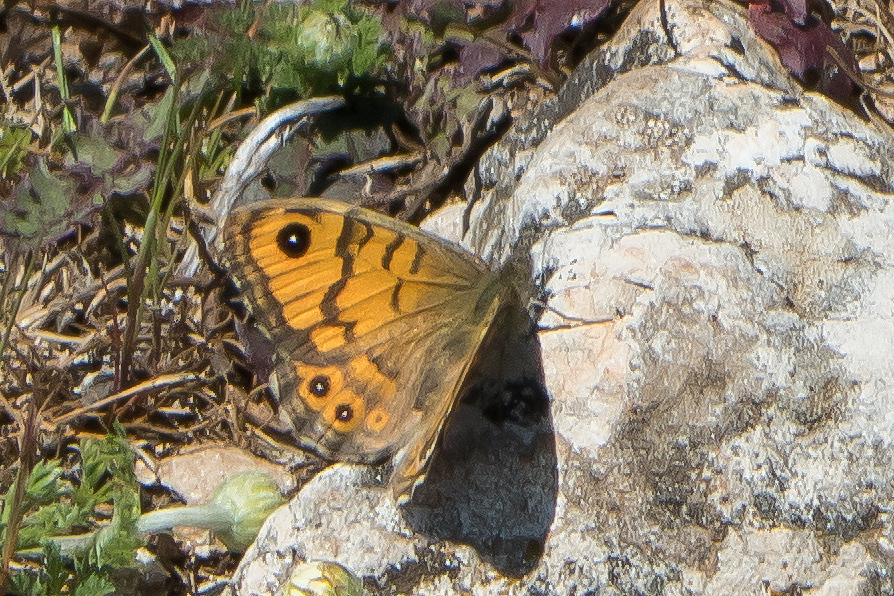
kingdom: Animalia
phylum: Arthropoda
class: Insecta
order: Lepidoptera
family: Nymphalidae
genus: Pararge
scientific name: Pararge Lasiommata megera
